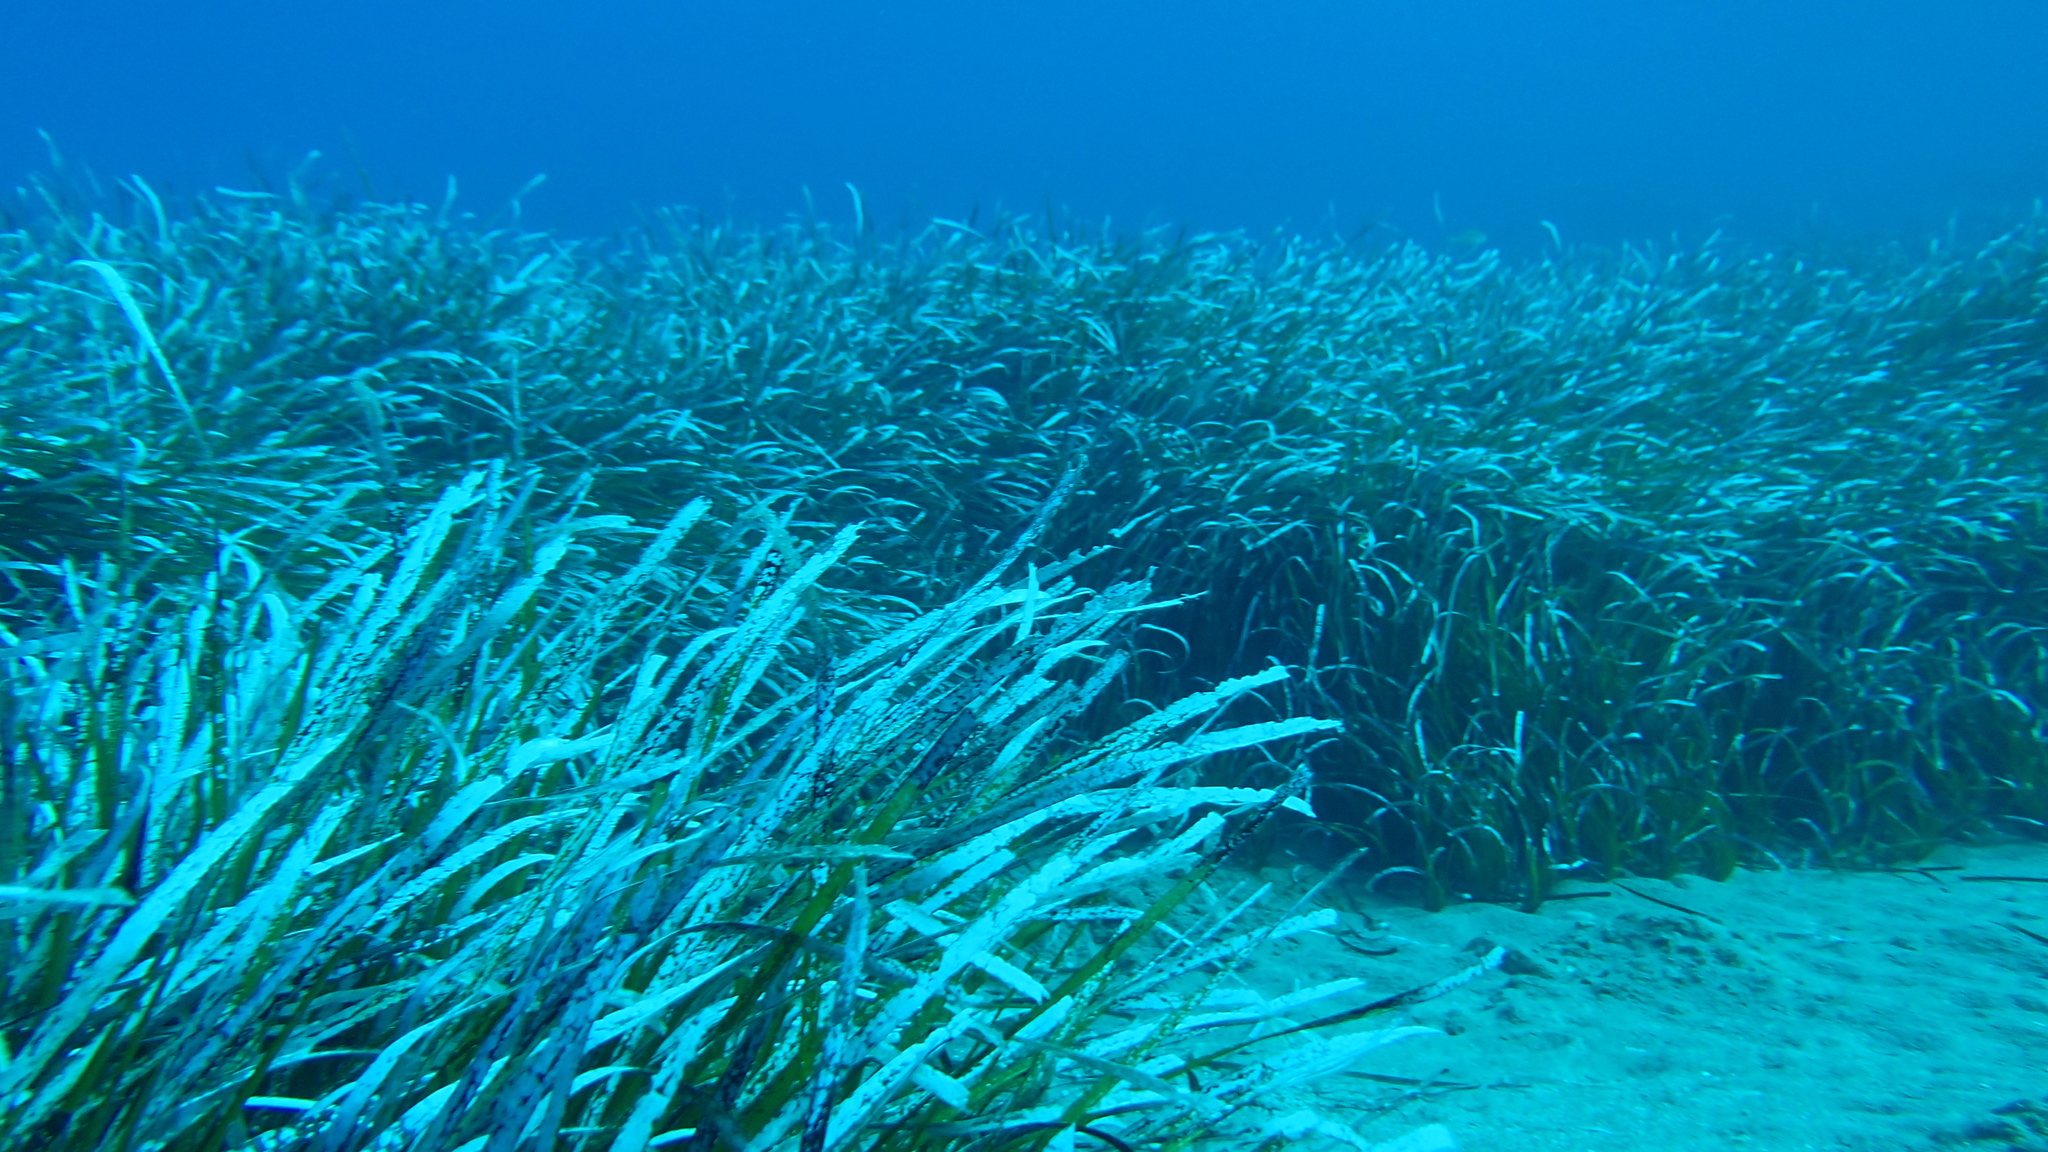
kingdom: Plantae
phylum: Tracheophyta
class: Liliopsida
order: Alismatales
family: Posidoniaceae
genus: Posidonia
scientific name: Posidonia oceanica
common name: Mediterranean tapeweed
